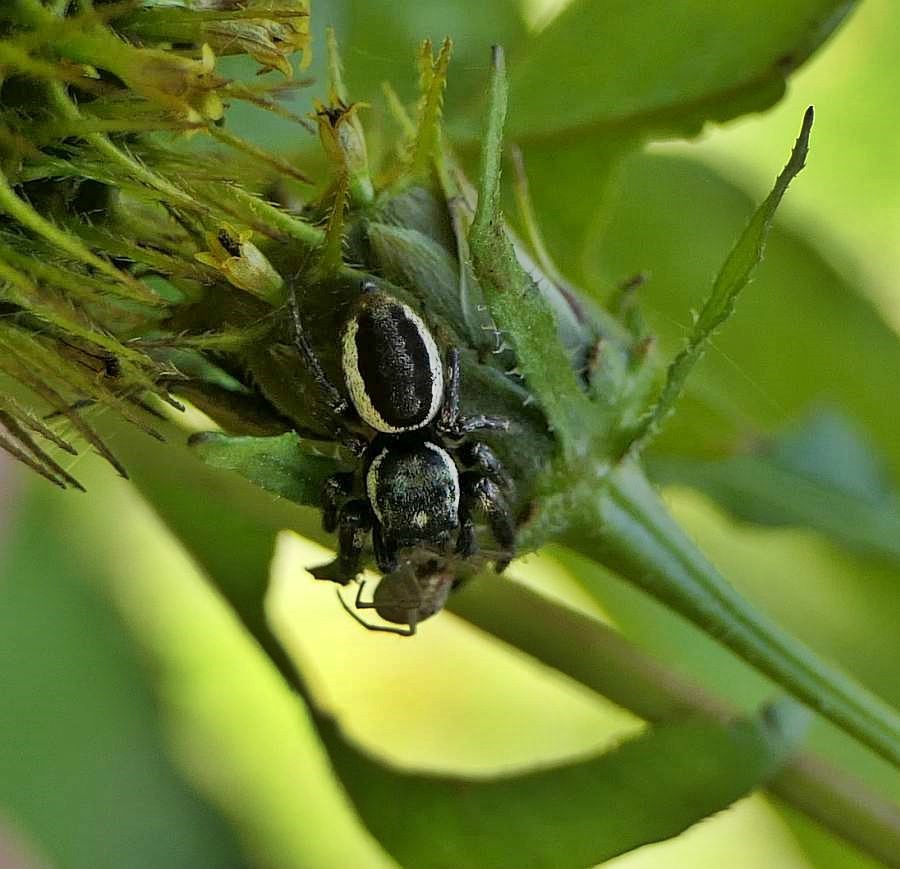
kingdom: Animalia
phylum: Arthropoda
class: Arachnida
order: Araneae
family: Salticidae
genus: Eris
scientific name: Eris militaris
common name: Bronze jumper
